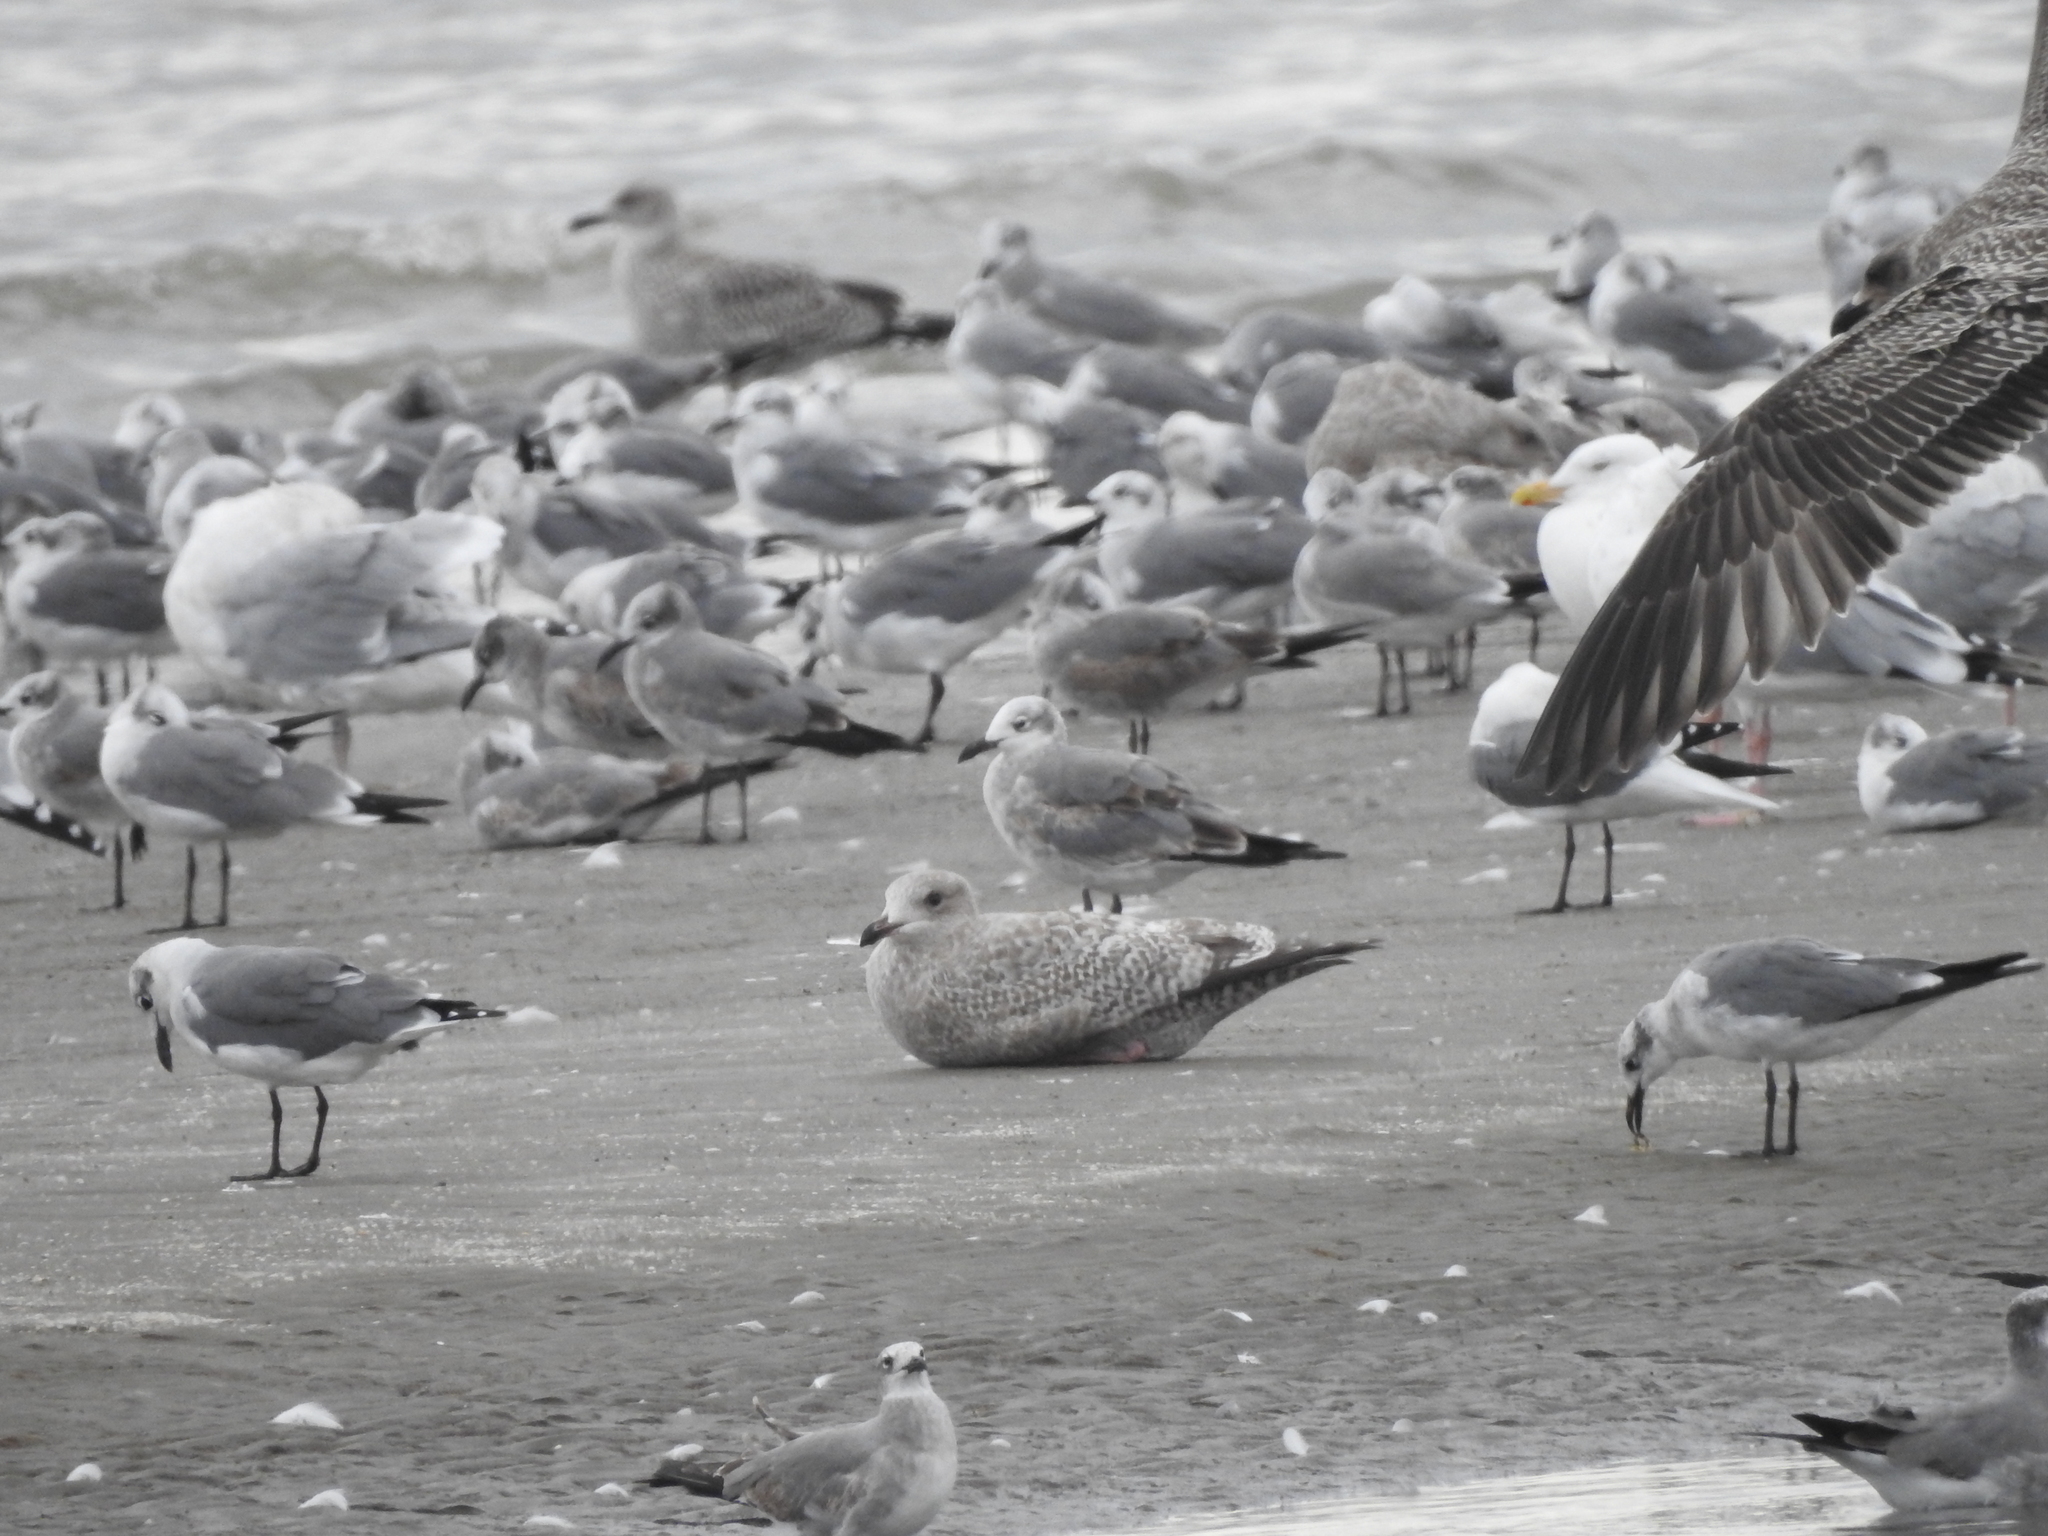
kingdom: Animalia
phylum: Chordata
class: Aves
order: Charadriiformes
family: Laridae
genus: Larus
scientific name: Larus argentatus
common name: Herring gull
